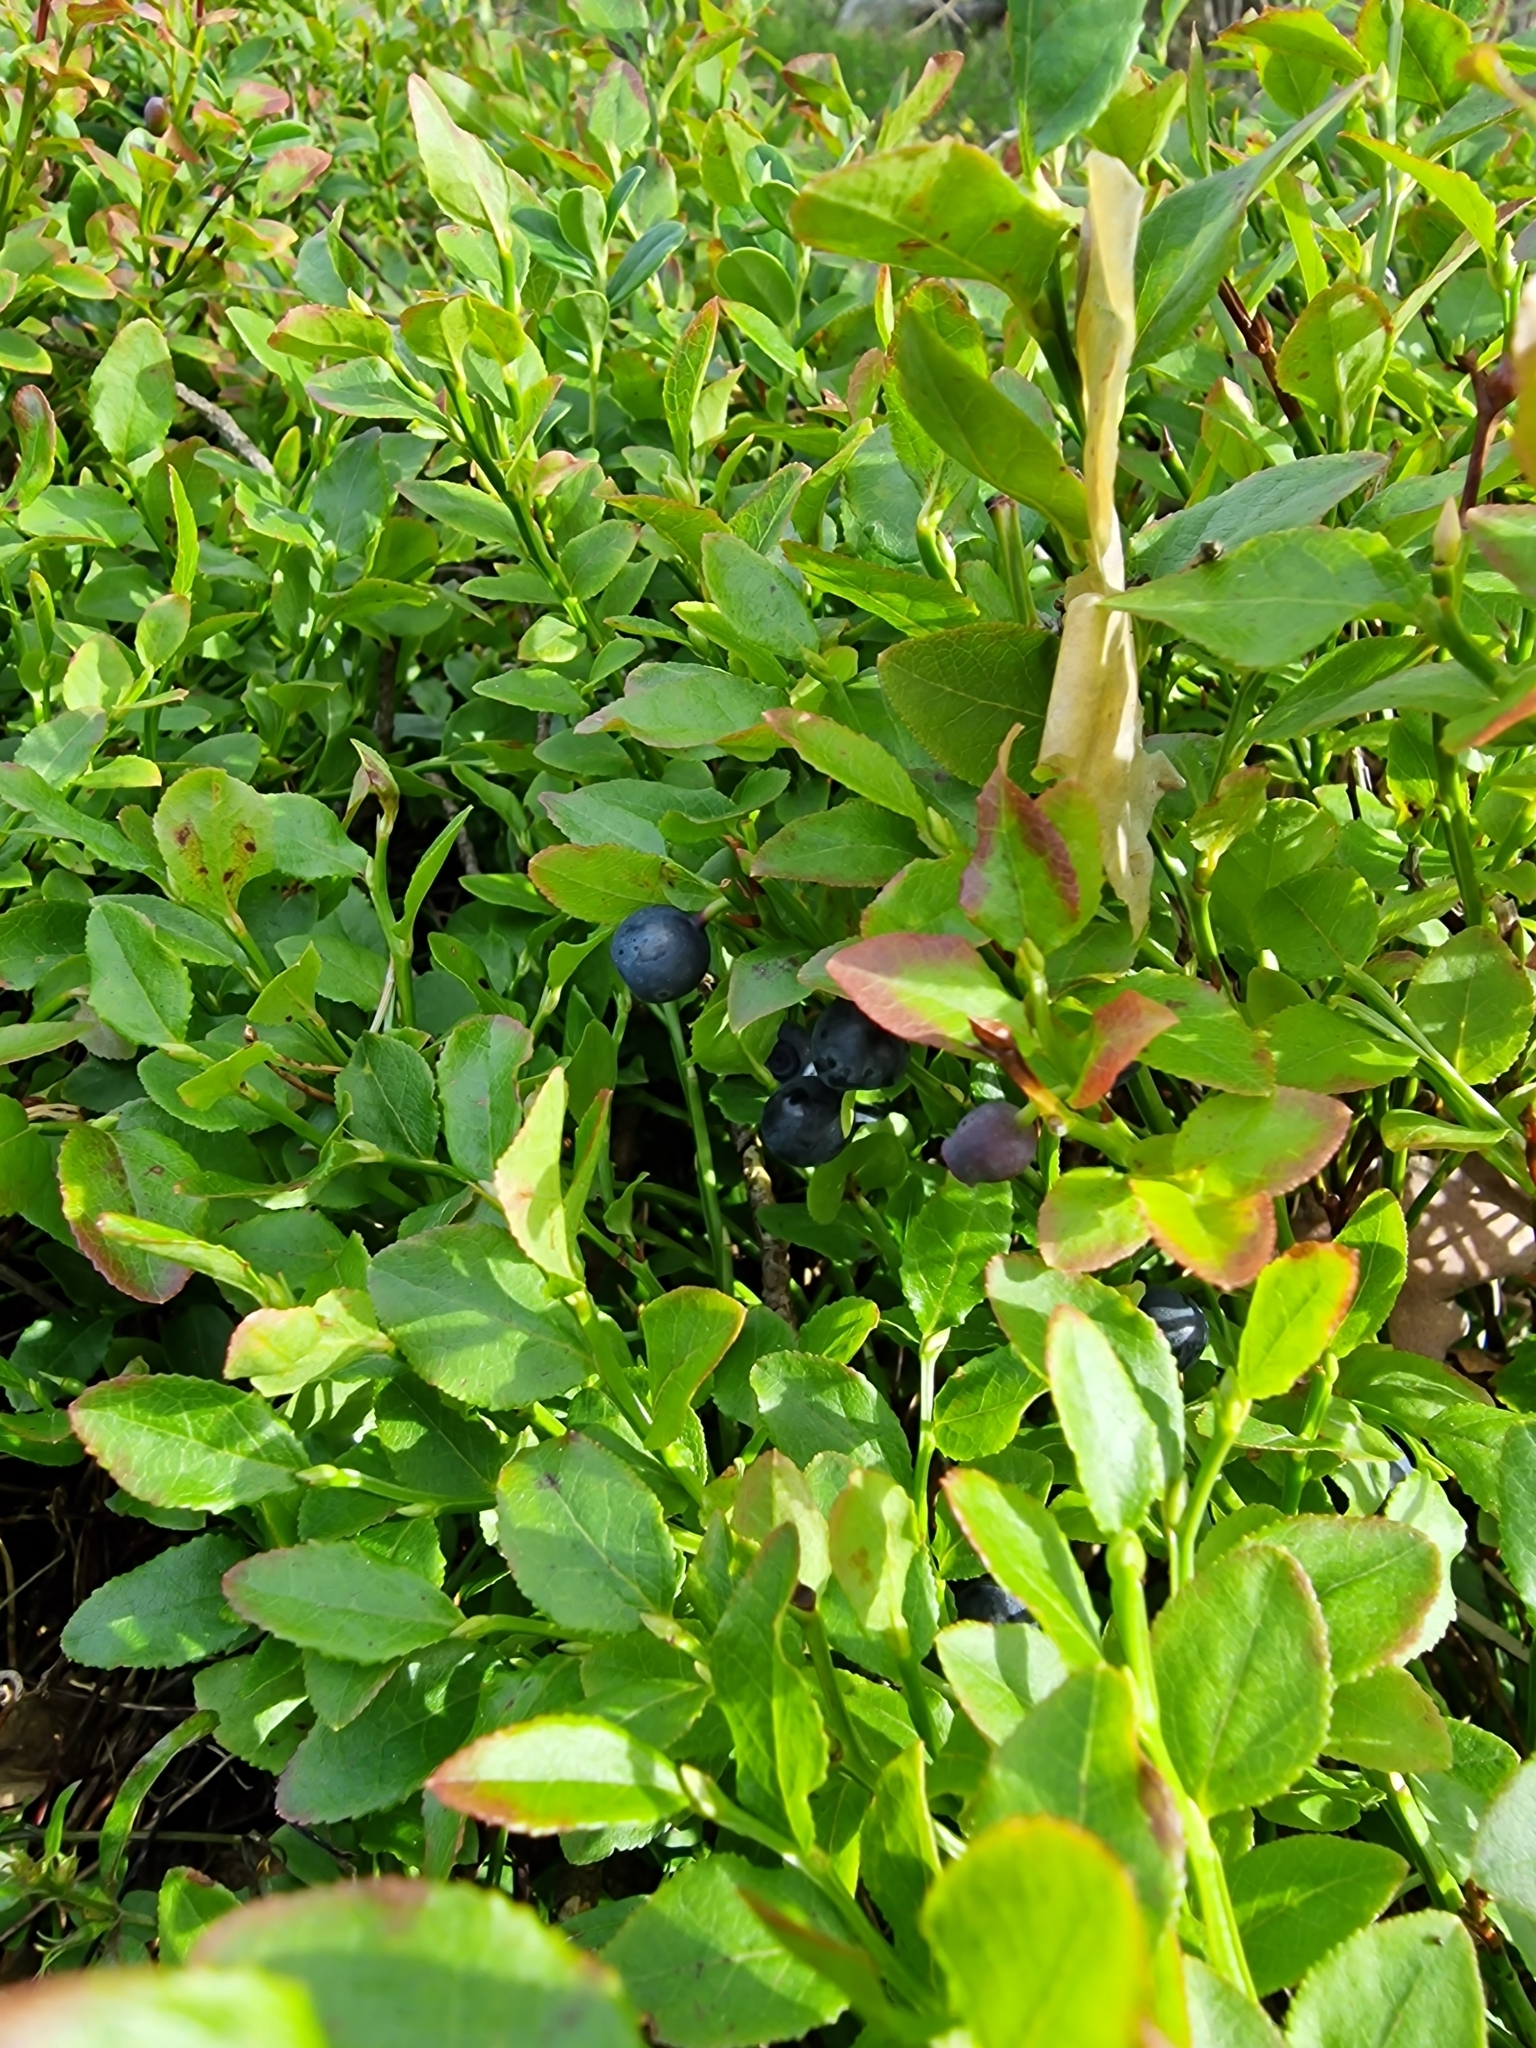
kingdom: Plantae
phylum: Tracheophyta
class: Magnoliopsida
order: Ericales
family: Ericaceae
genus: Vaccinium
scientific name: Vaccinium myrtillus
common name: Bilberry
